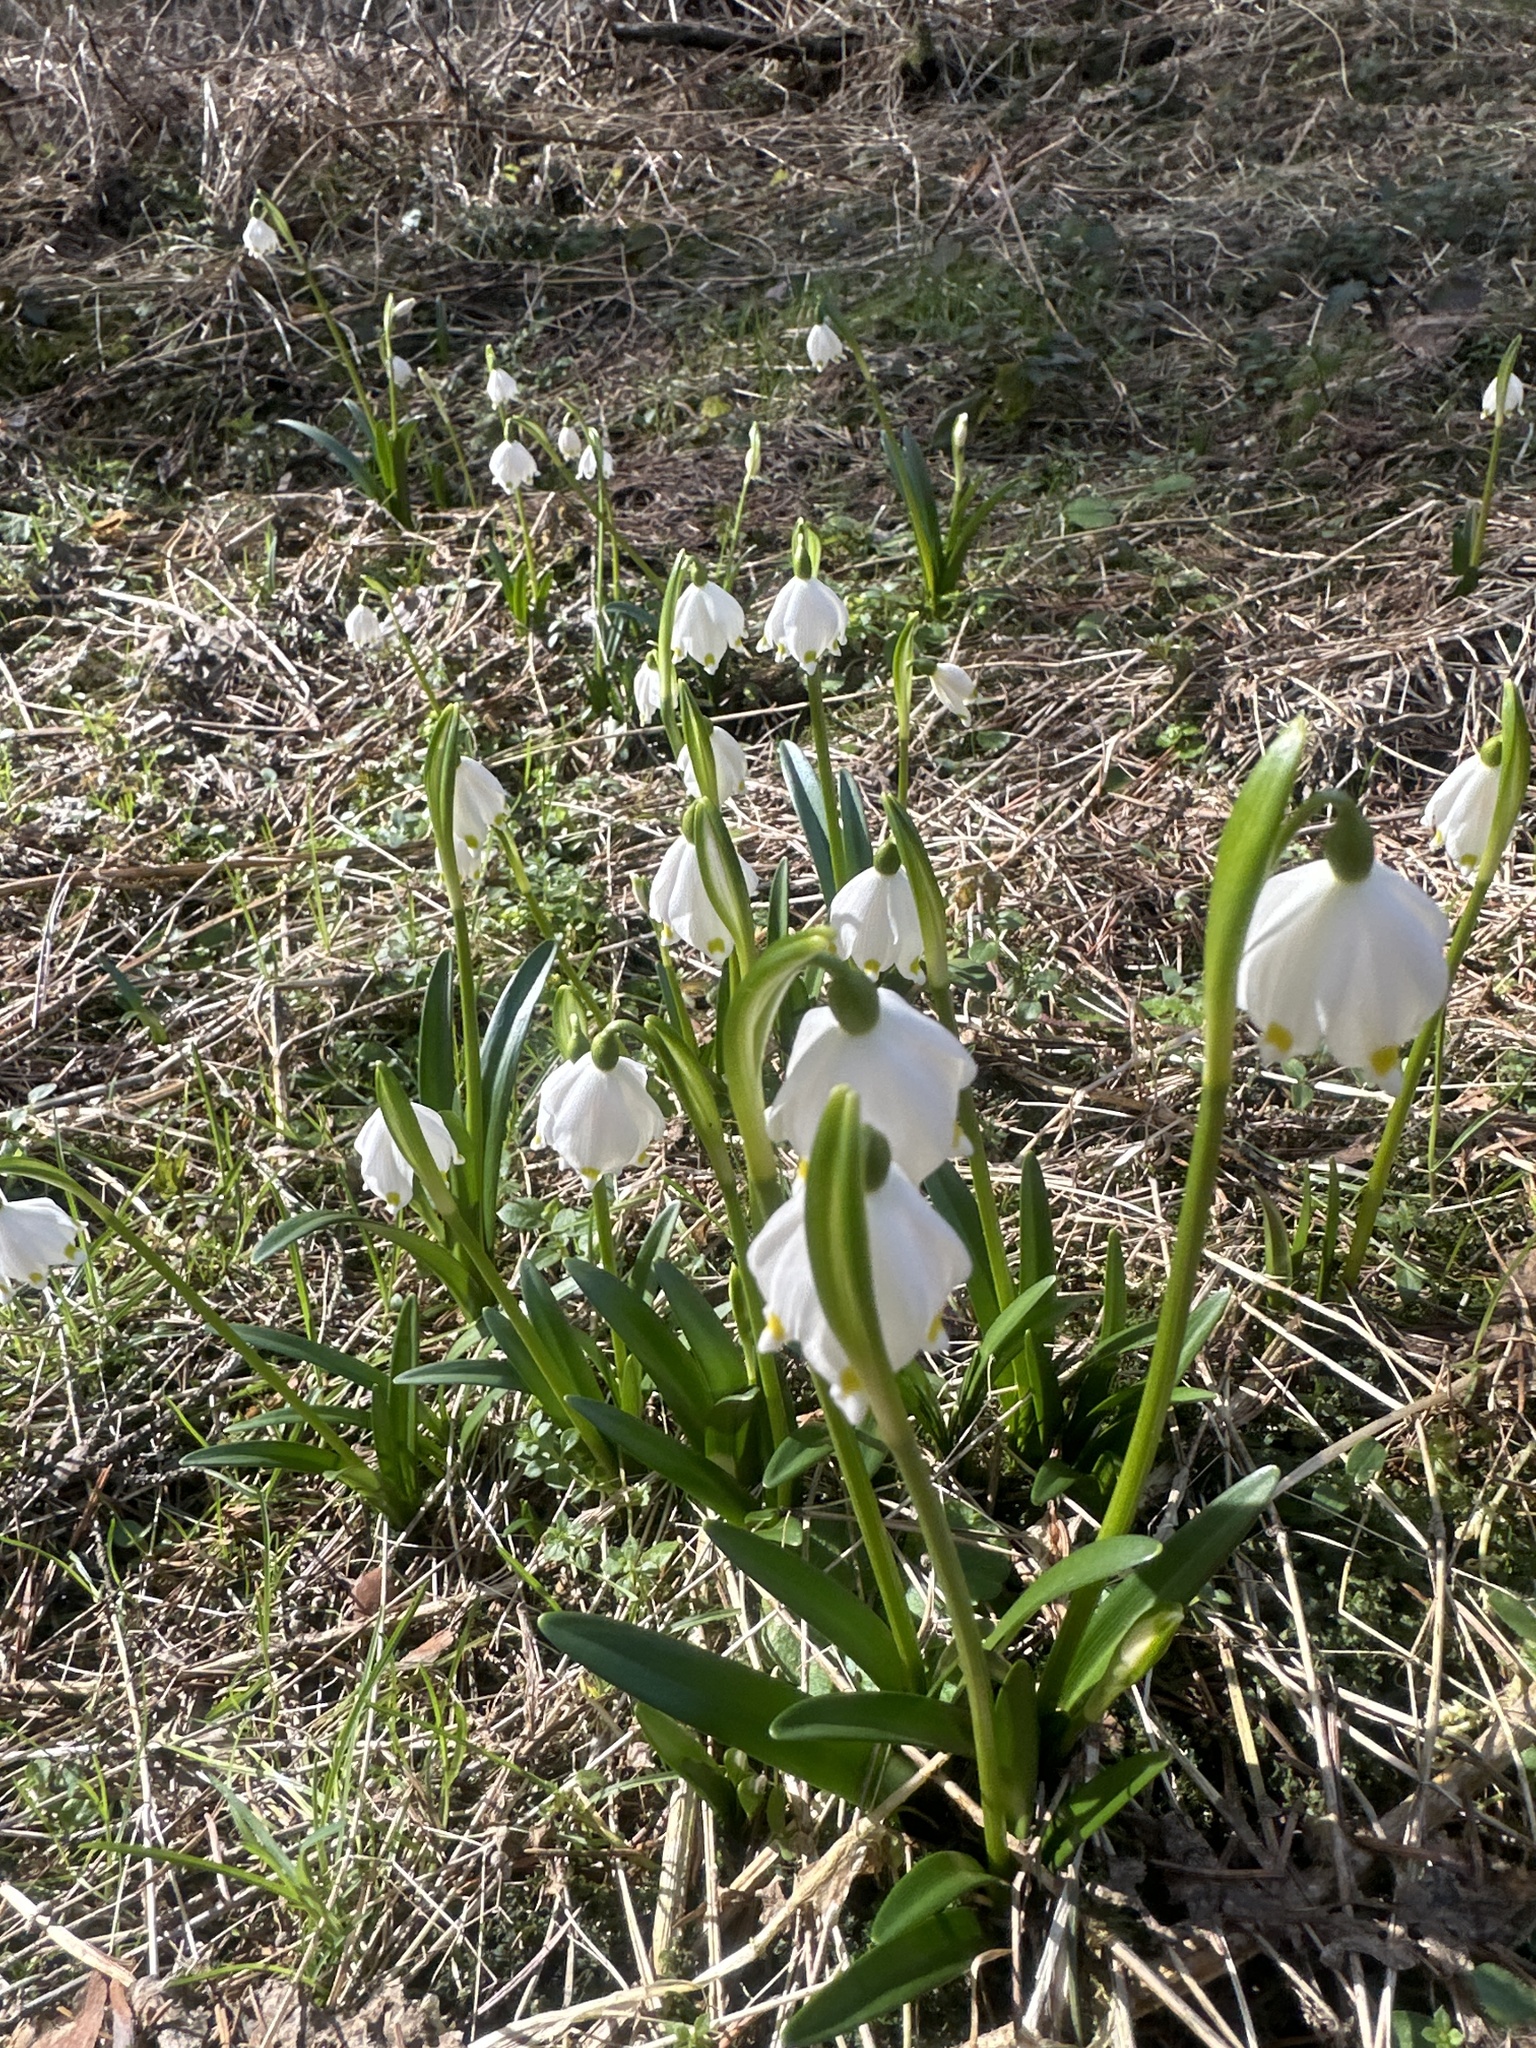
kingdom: Plantae
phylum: Tracheophyta
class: Liliopsida
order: Asparagales
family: Amaryllidaceae
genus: Leucojum
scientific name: Leucojum vernum
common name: Spring snowflake
